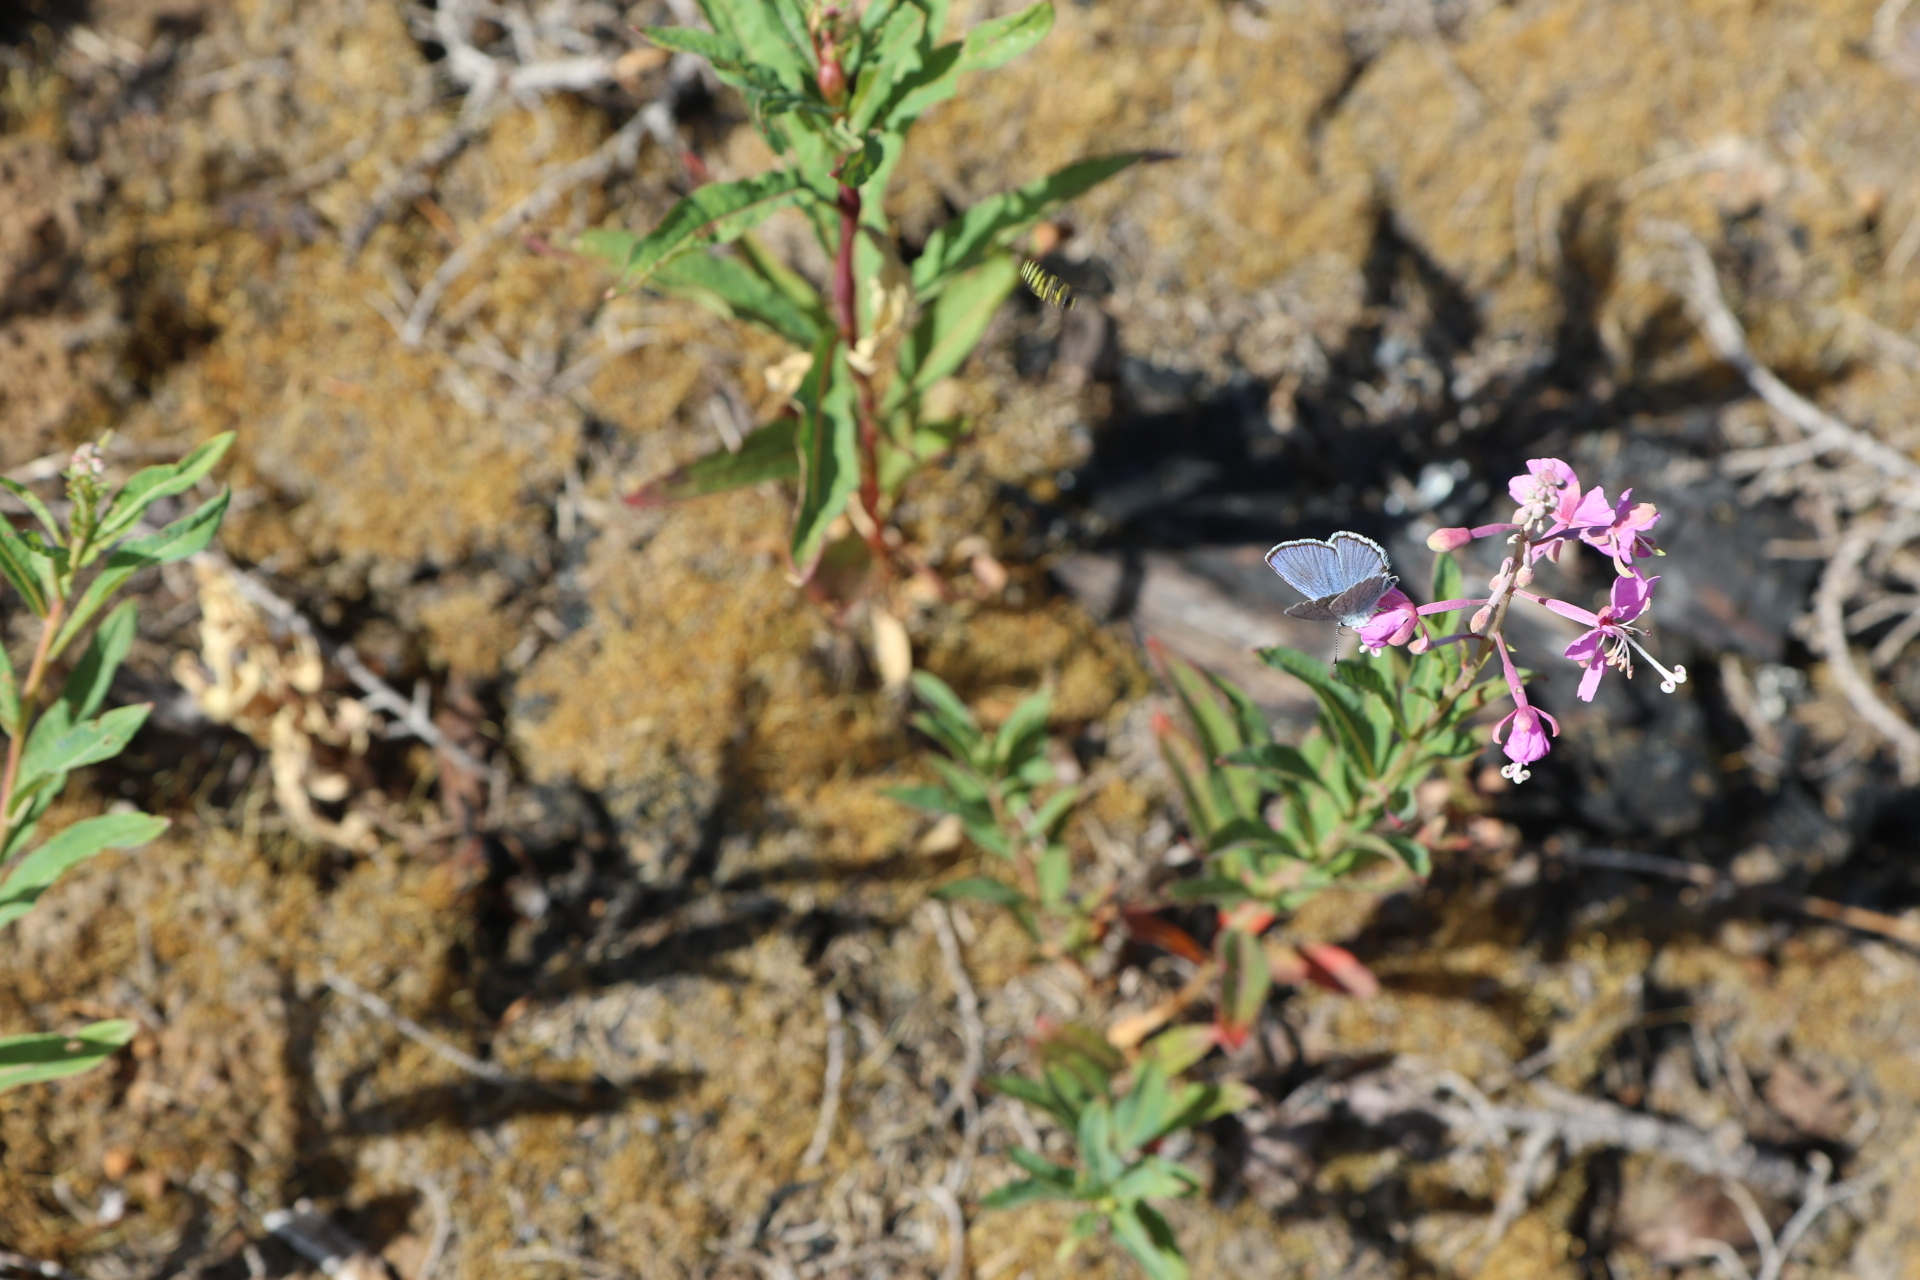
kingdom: Plantae
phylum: Tracheophyta
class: Magnoliopsida
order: Myrtales
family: Onagraceae
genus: Chamaenerion
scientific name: Chamaenerion angustifolium
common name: Fireweed
